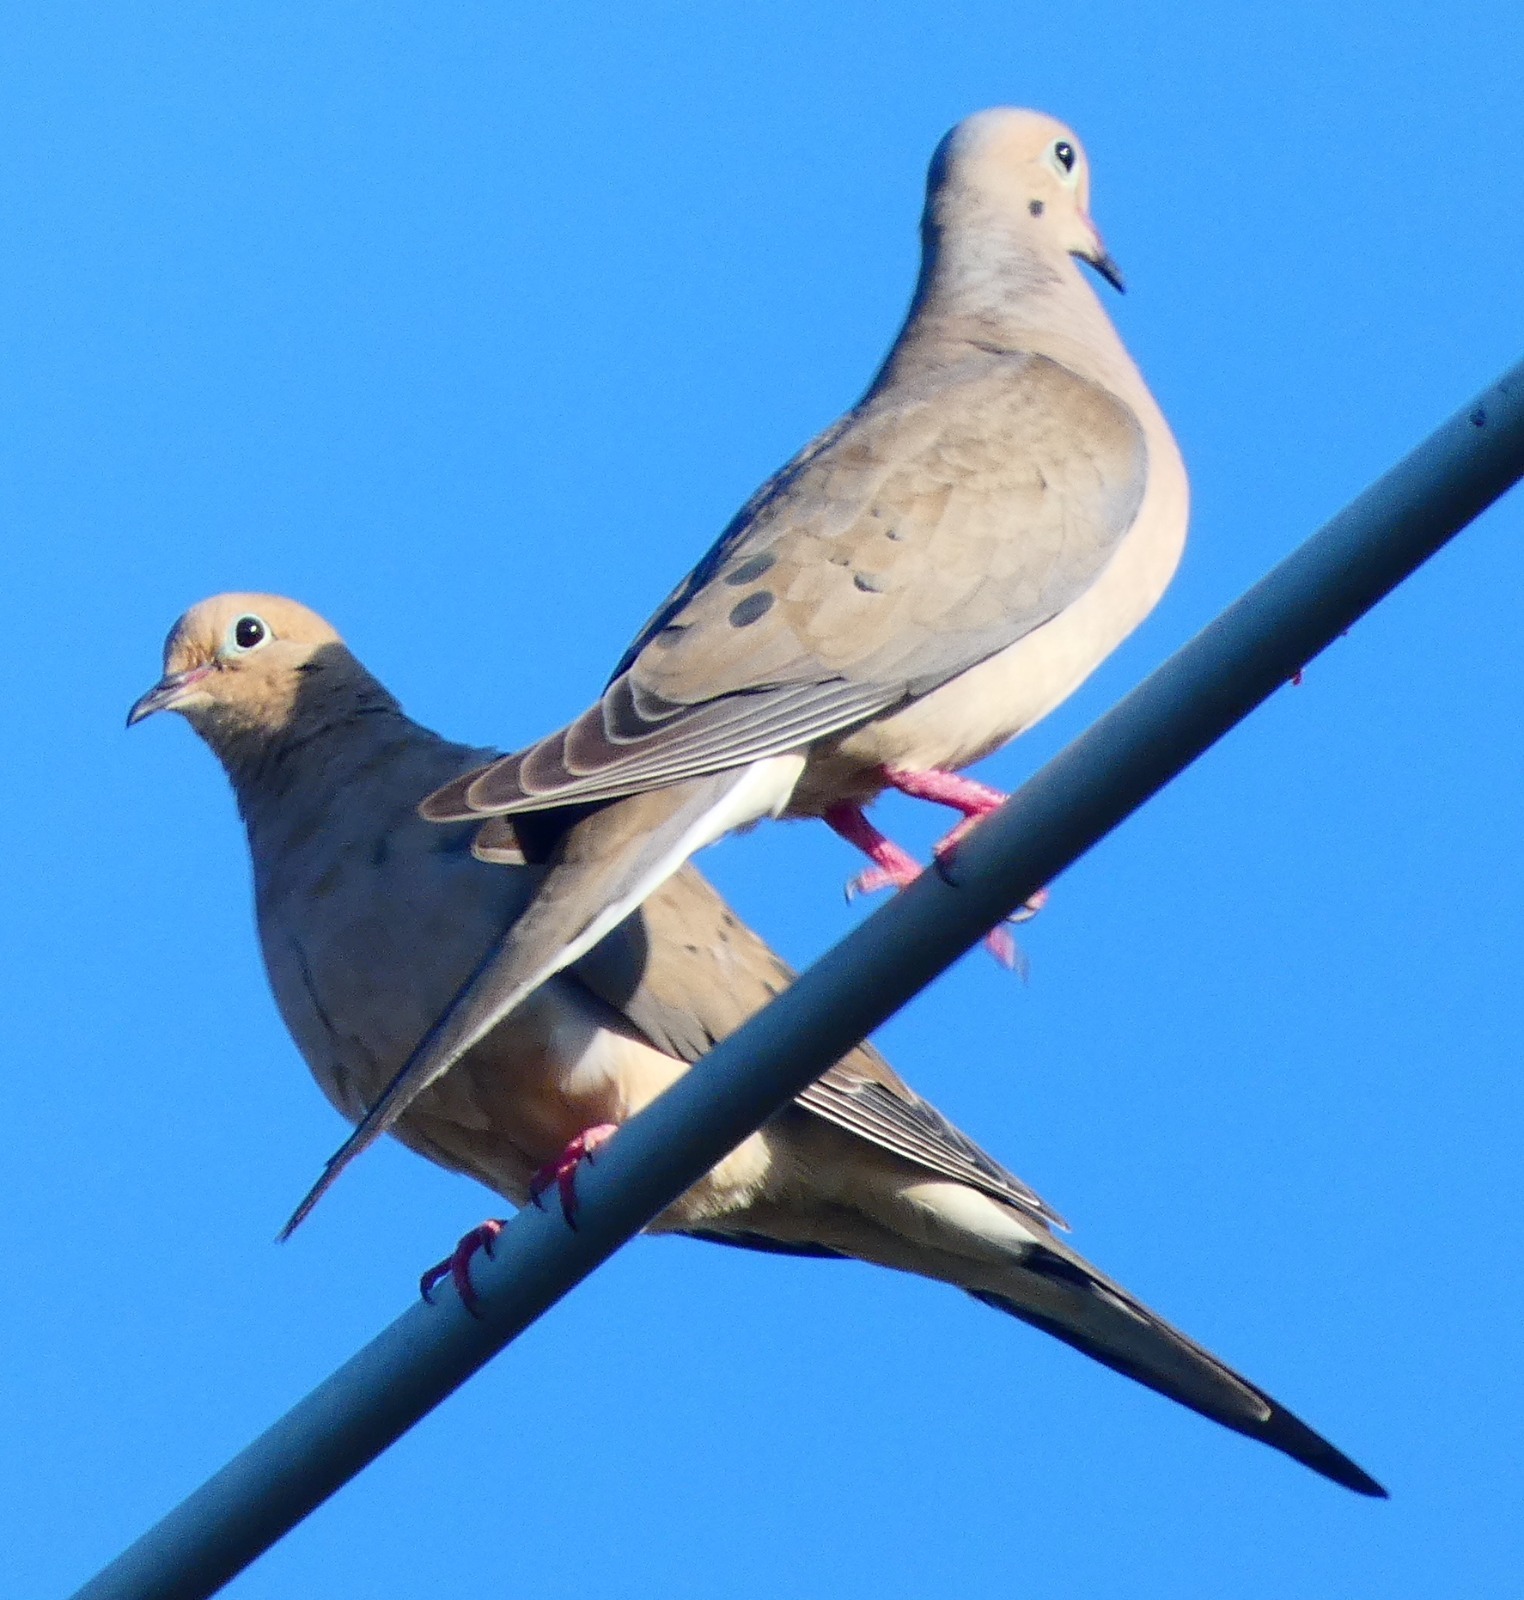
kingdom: Animalia
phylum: Chordata
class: Aves
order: Columbiformes
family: Columbidae
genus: Zenaida
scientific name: Zenaida macroura
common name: Mourning dove
